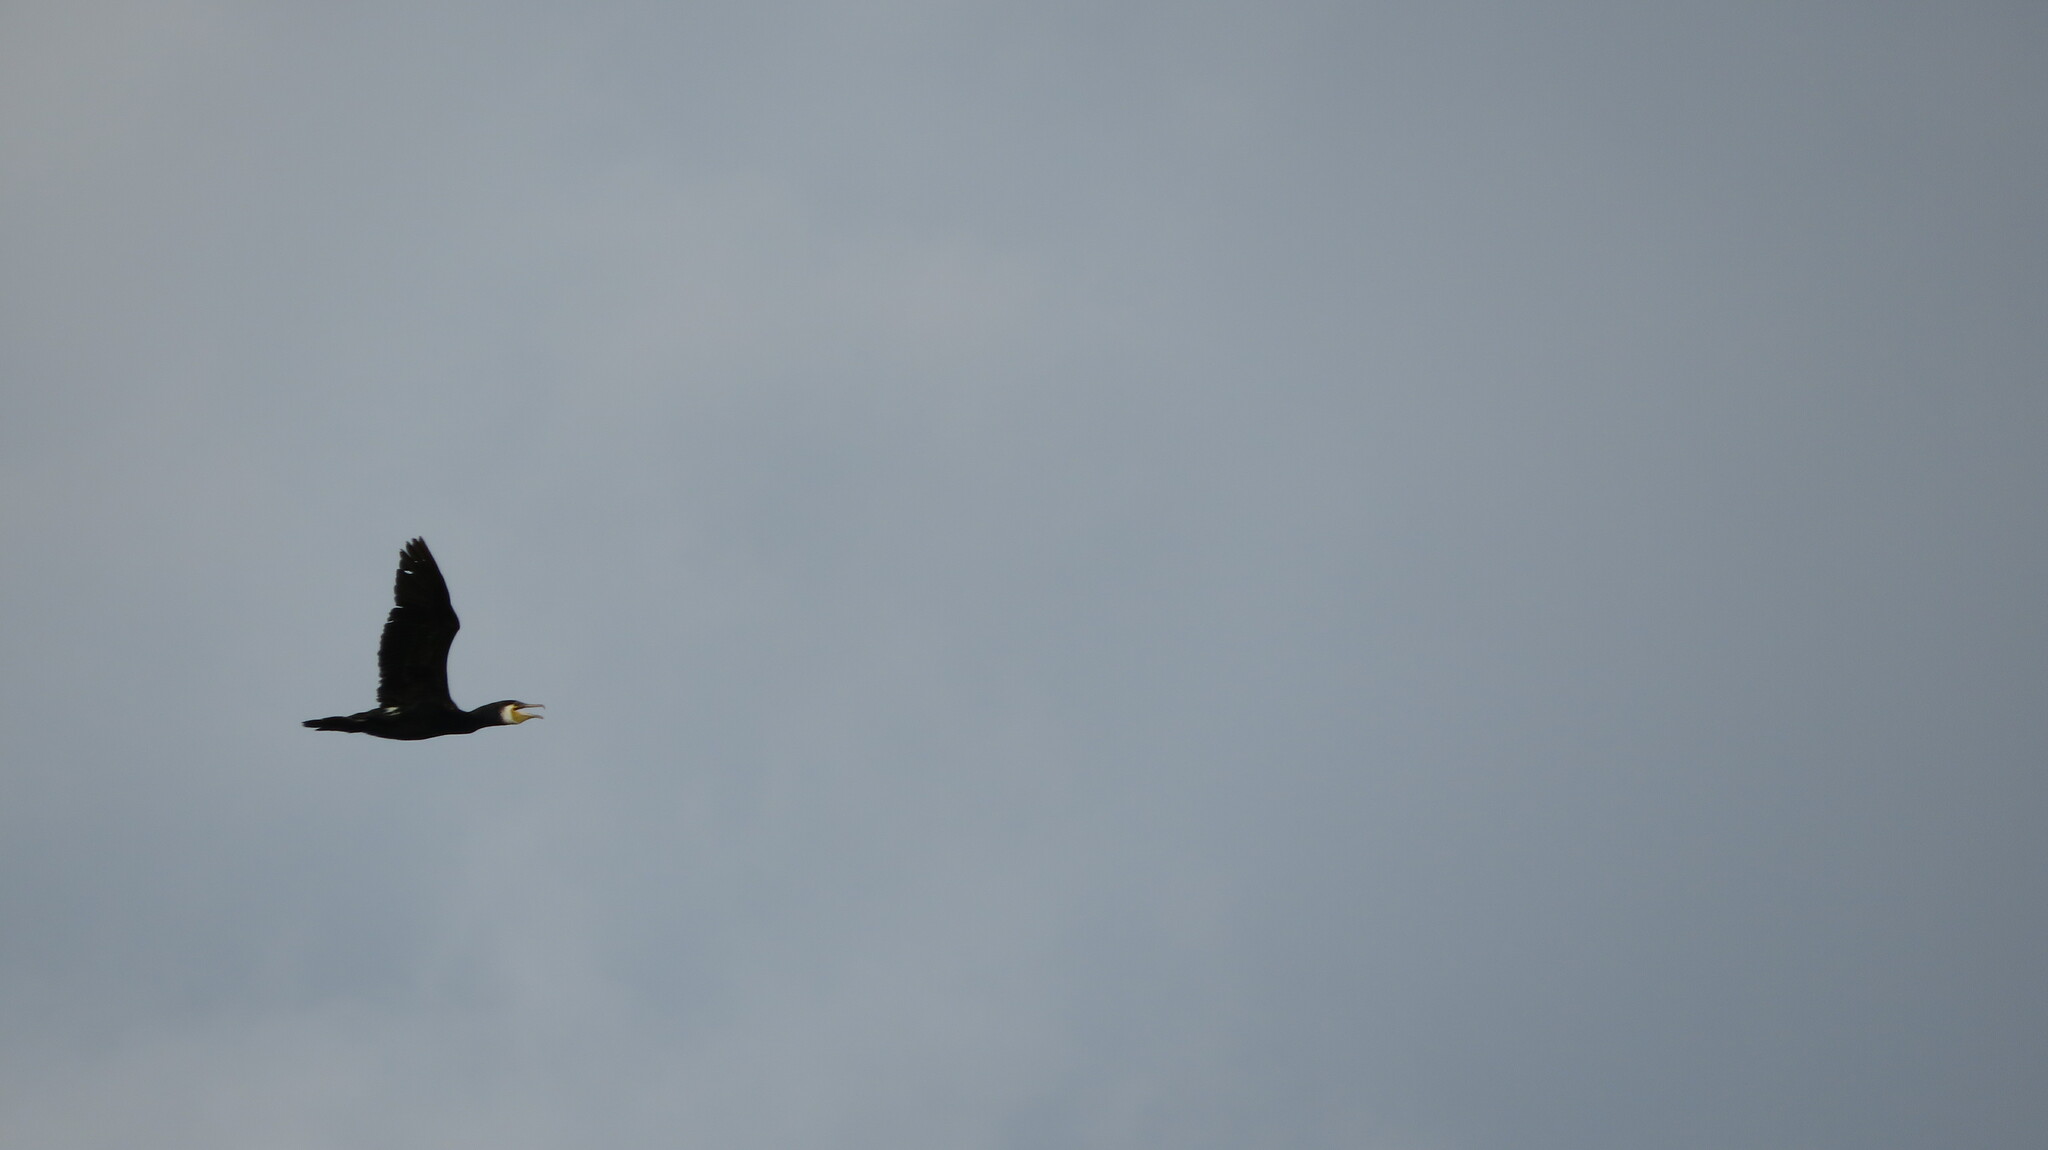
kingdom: Animalia
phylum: Chordata
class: Aves
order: Suliformes
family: Phalacrocoracidae
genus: Phalacrocorax
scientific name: Phalacrocorax carbo
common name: Great cormorant
